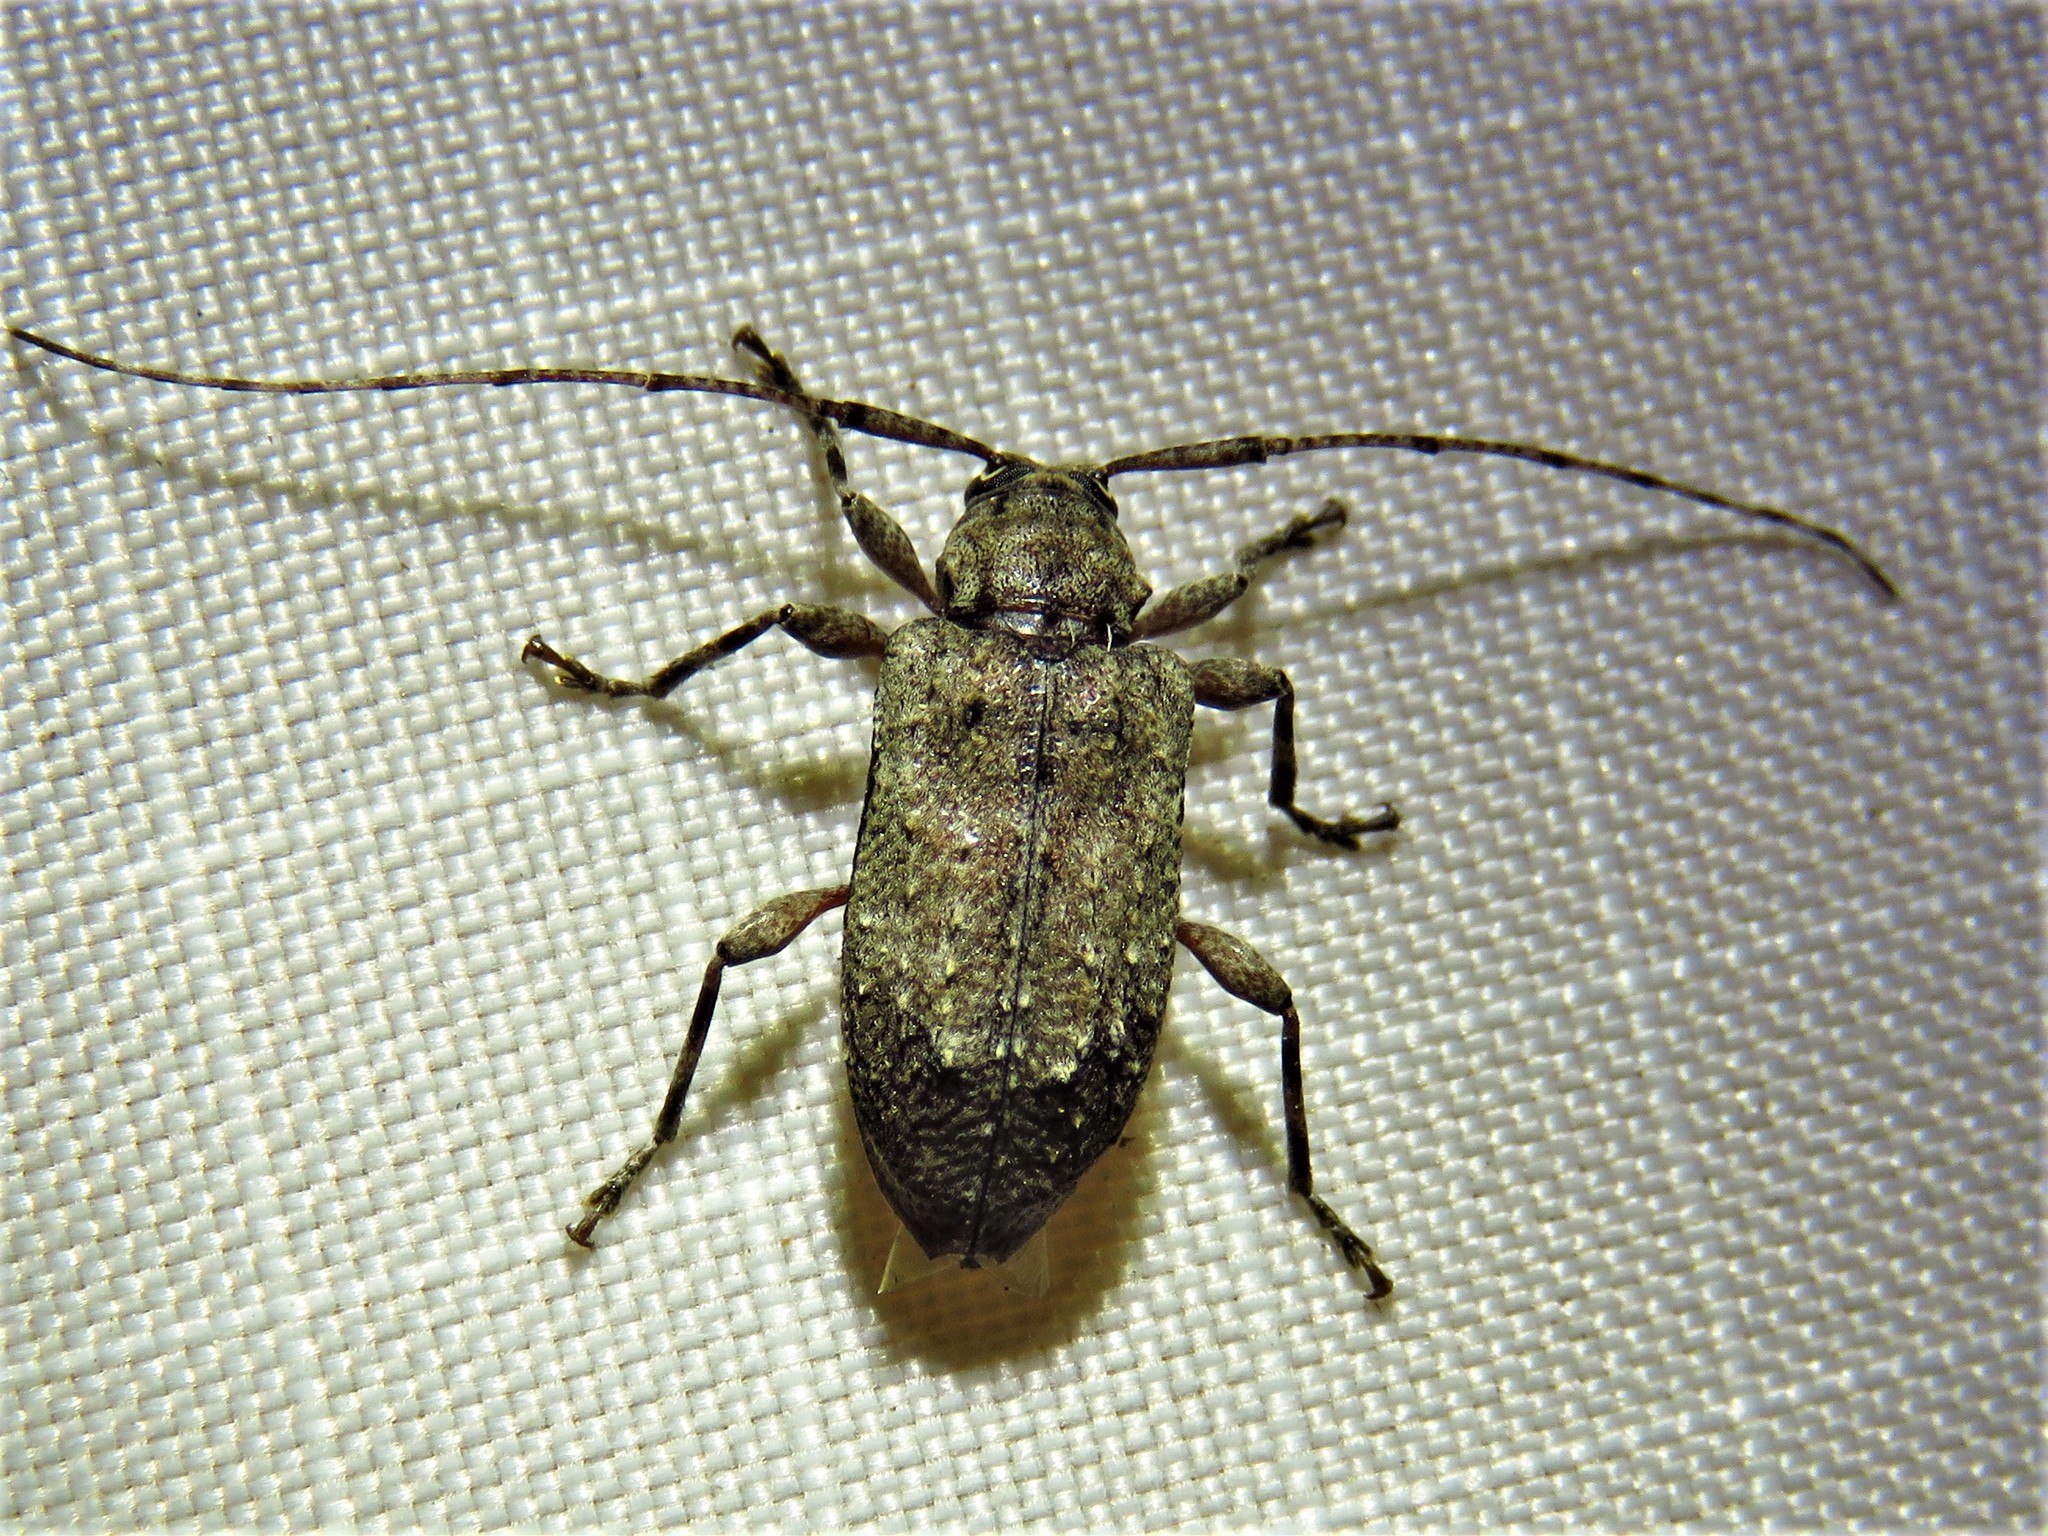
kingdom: Animalia
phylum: Arthropoda
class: Insecta
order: Coleoptera
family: Cerambycidae
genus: Astylopsis
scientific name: Astylopsis arcuata
